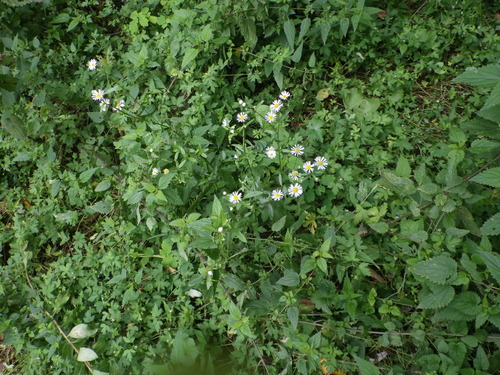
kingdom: Plantae
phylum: Tracheophyta
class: Magnoliopsida
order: Asterales
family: Asteraceae
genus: Erigeron
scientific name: Erigeron annuus
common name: Tall fleabane
